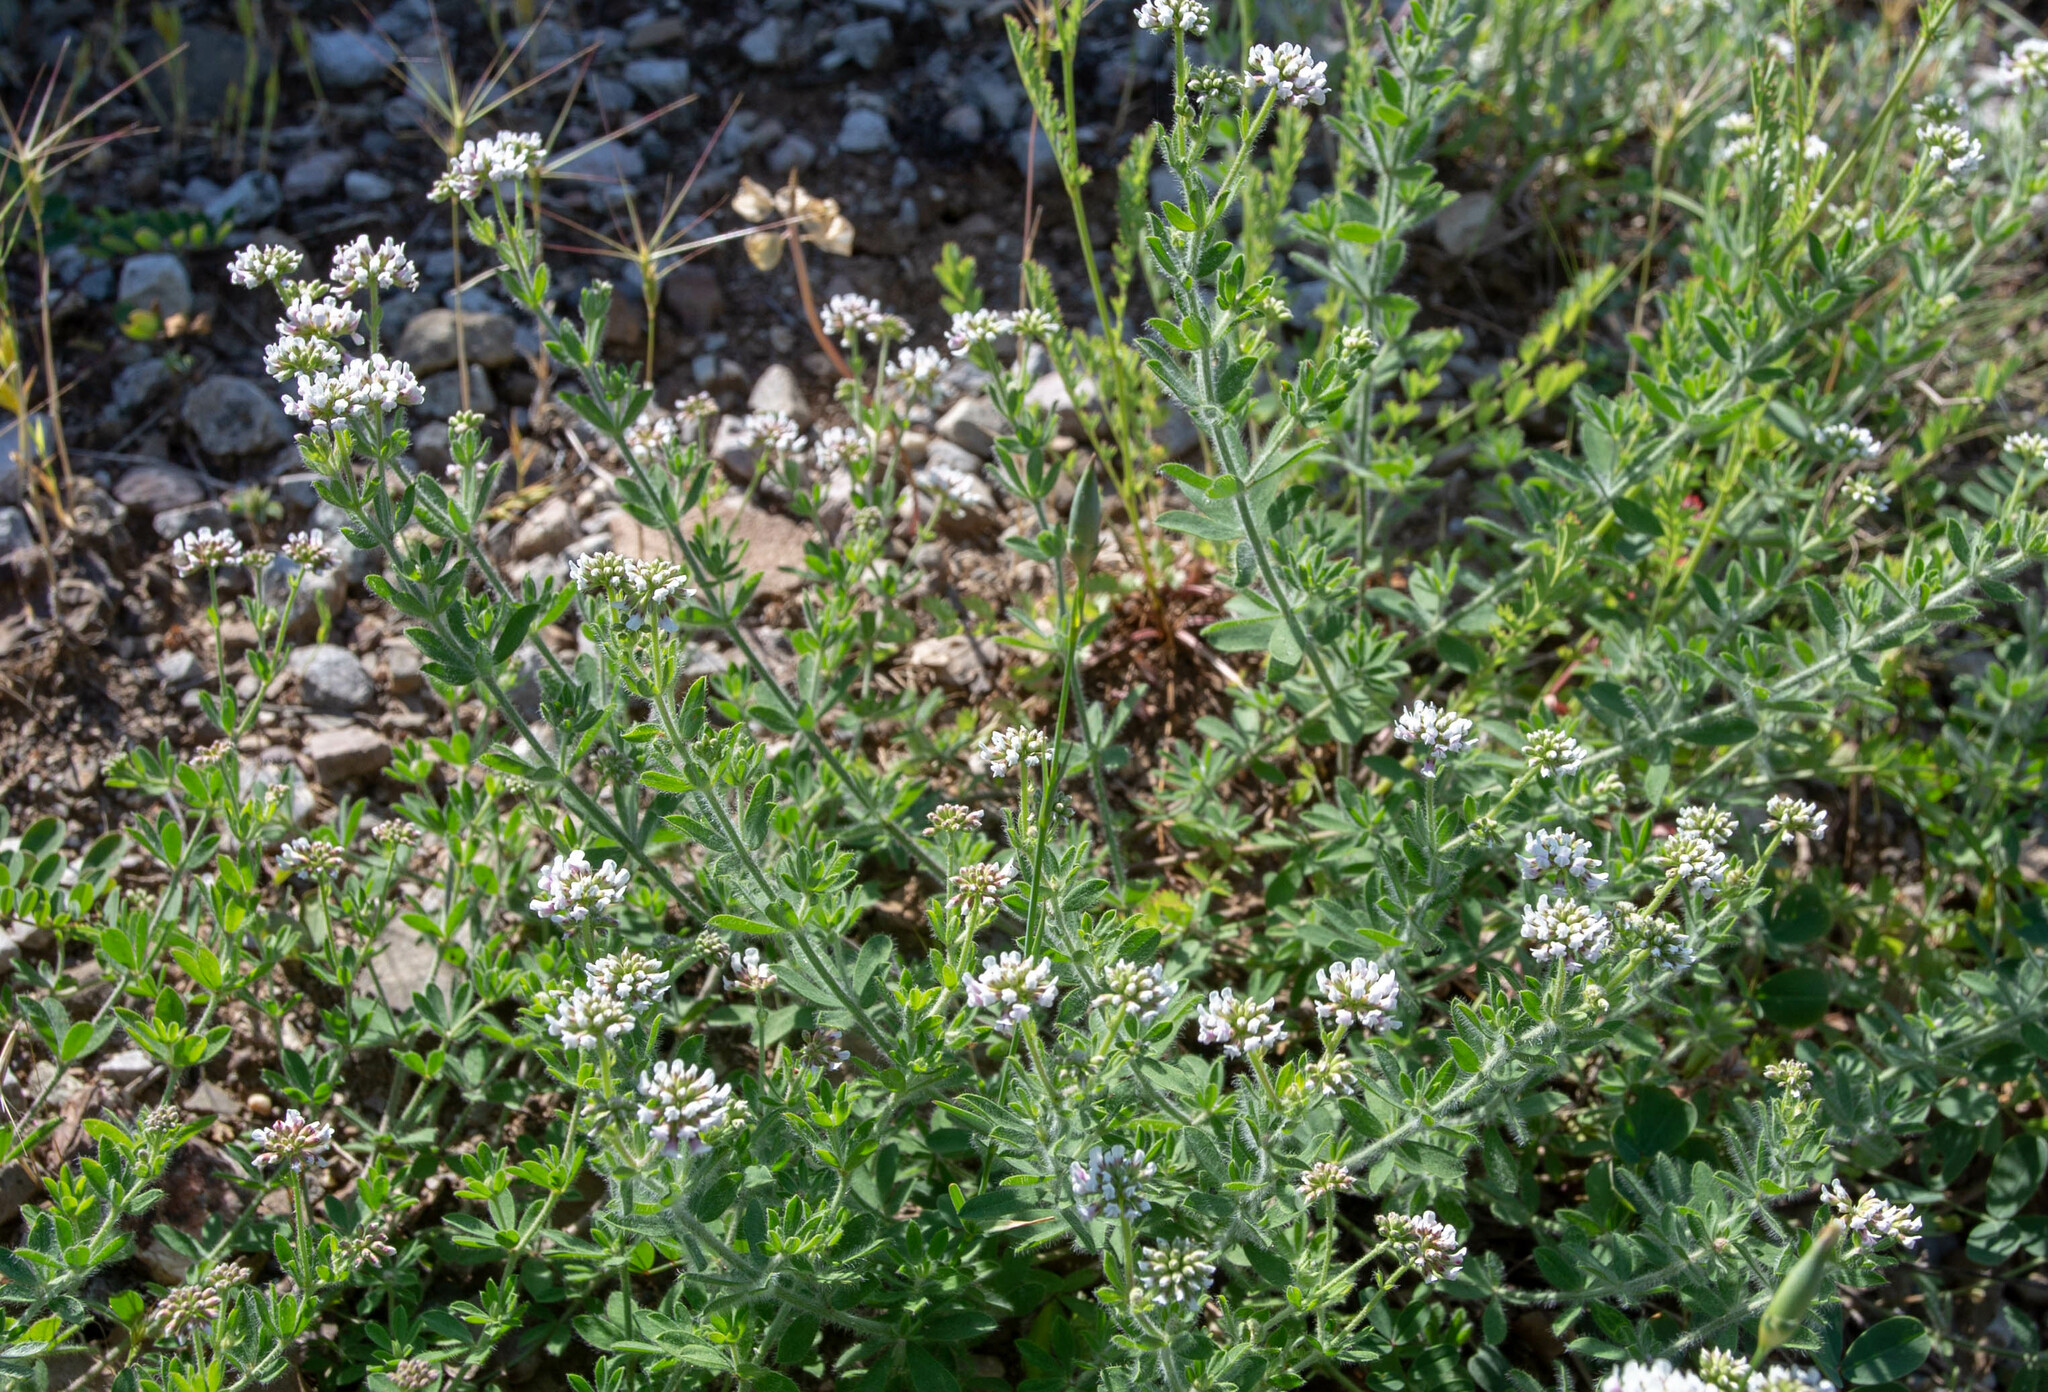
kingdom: Plantae
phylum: Tracheophyta
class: Magnoliopsida
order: Fabales
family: Fabaceae
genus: Lotus
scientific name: Lotus herbaceus
